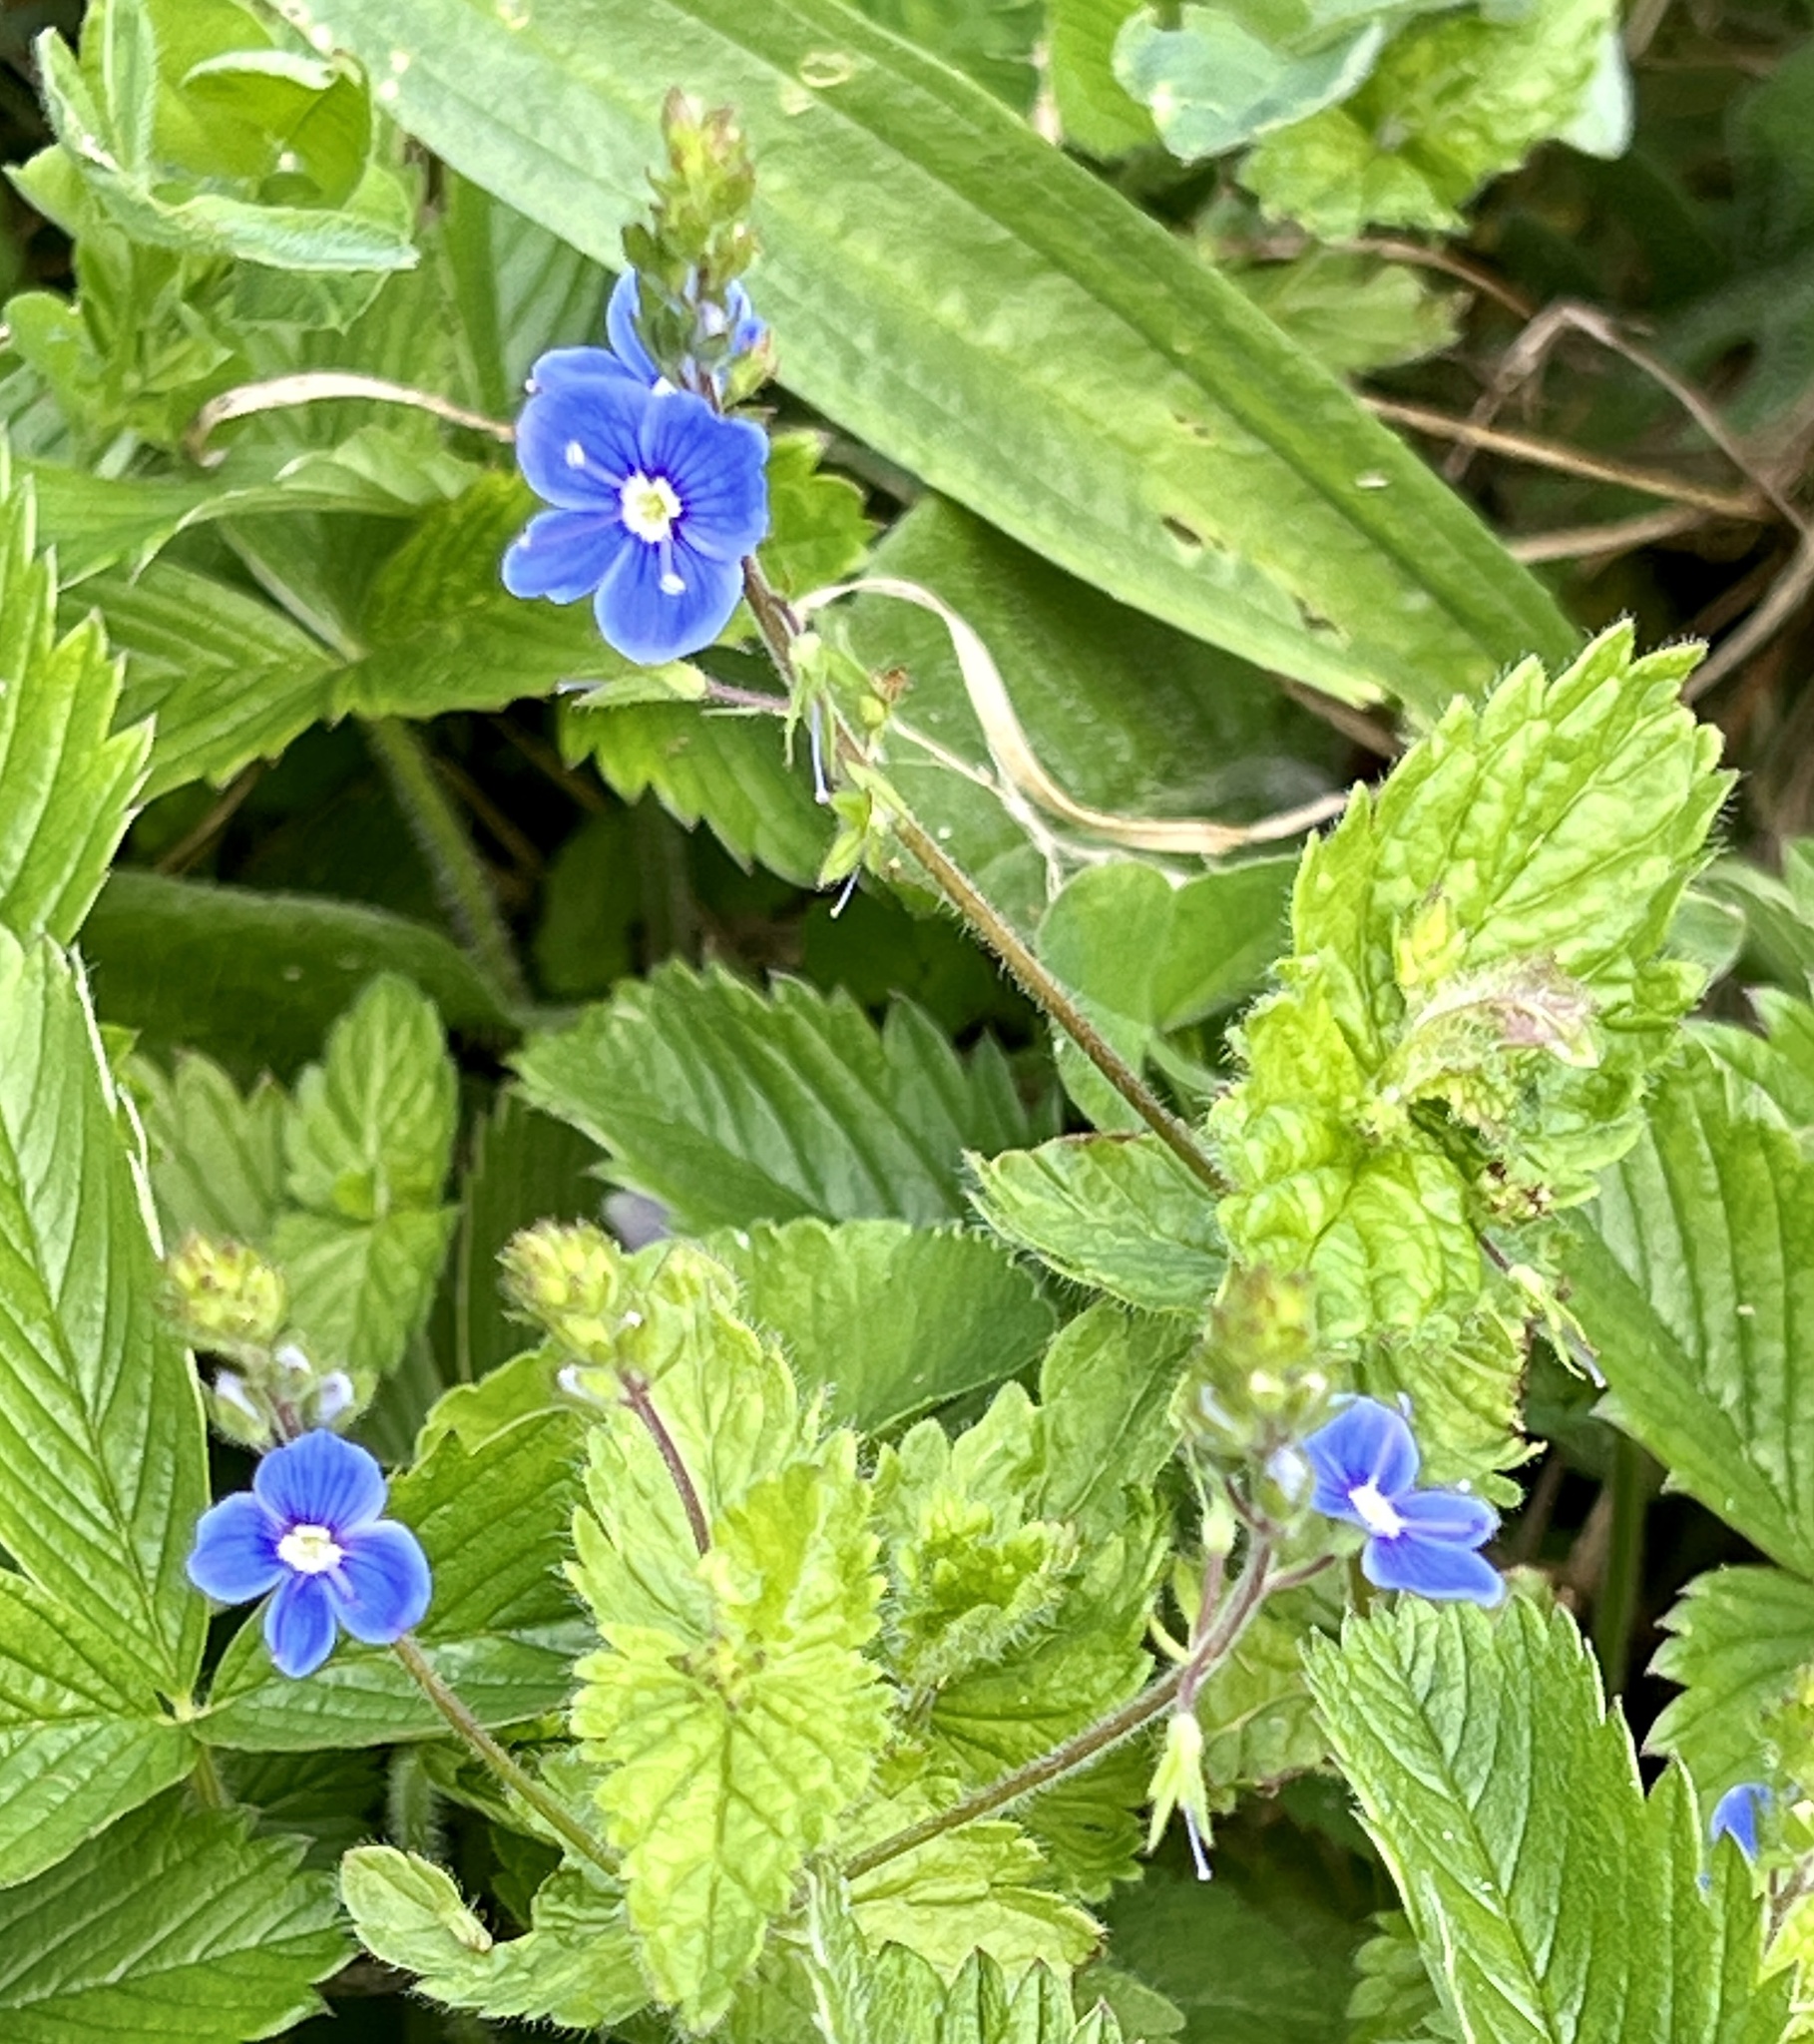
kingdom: Plantae
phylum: Tracheophyta
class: Magnoliopsida
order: Lamiales
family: Plantaginaceae
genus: Veronica
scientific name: Veronica chamaedrys
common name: Germander speedwell
